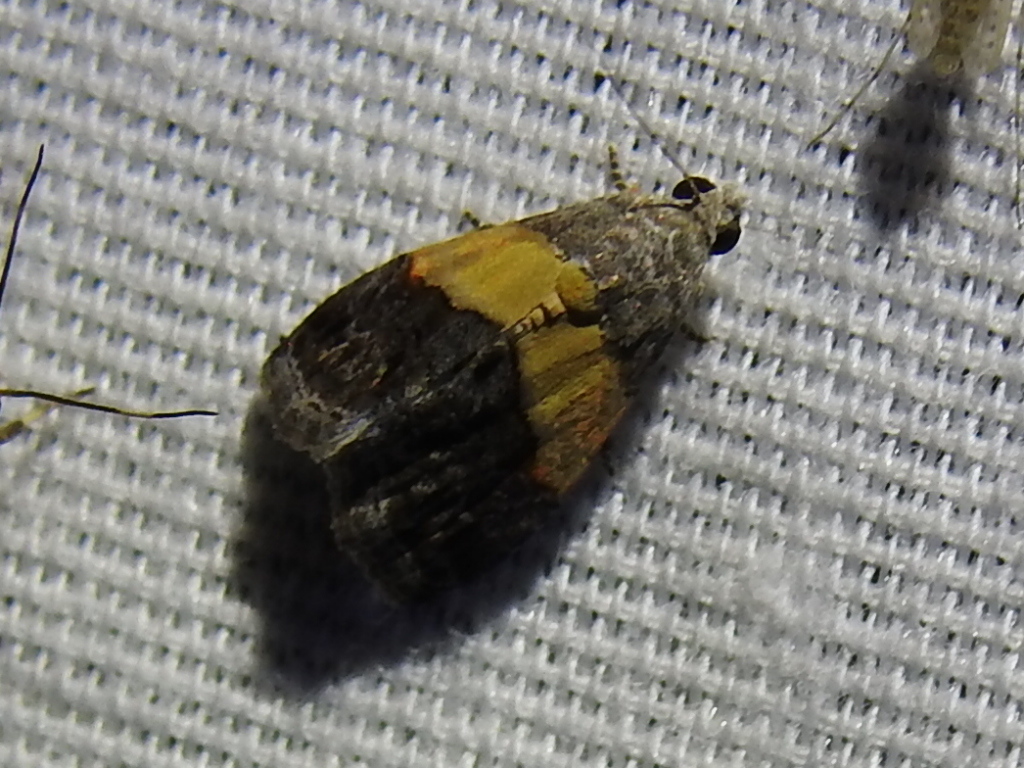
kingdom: Animalia
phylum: Arthropoda
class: Insecta
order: Lepidoptera
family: Noctuidae
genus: Tripudia
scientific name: Tripudia flavofasciata
